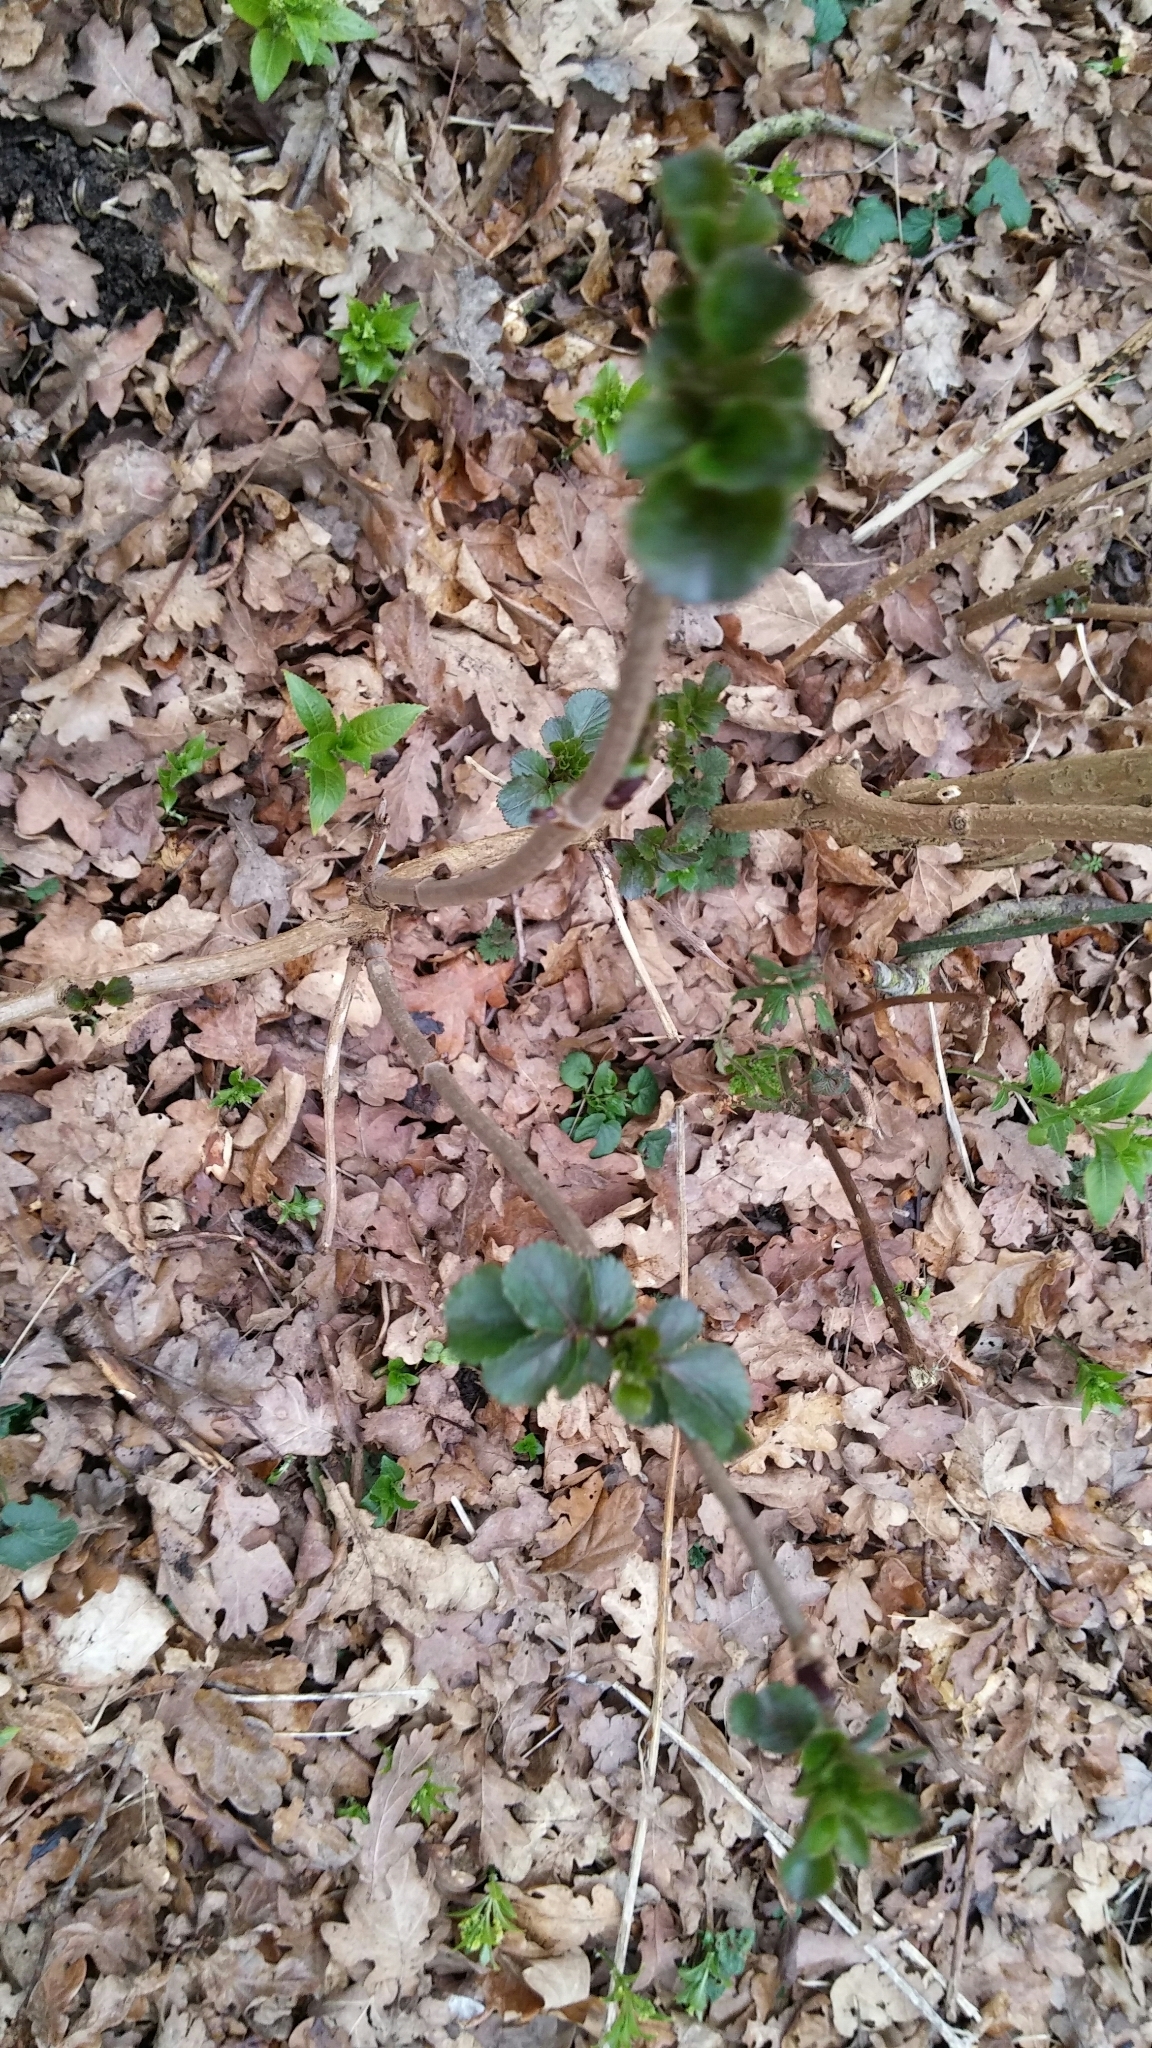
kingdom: Plantae
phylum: Tracheophyta
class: Magnoliopsida
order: Dipsacales
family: Viburnaceae
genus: Sambucus
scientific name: Sambucus nigra
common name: Elder
